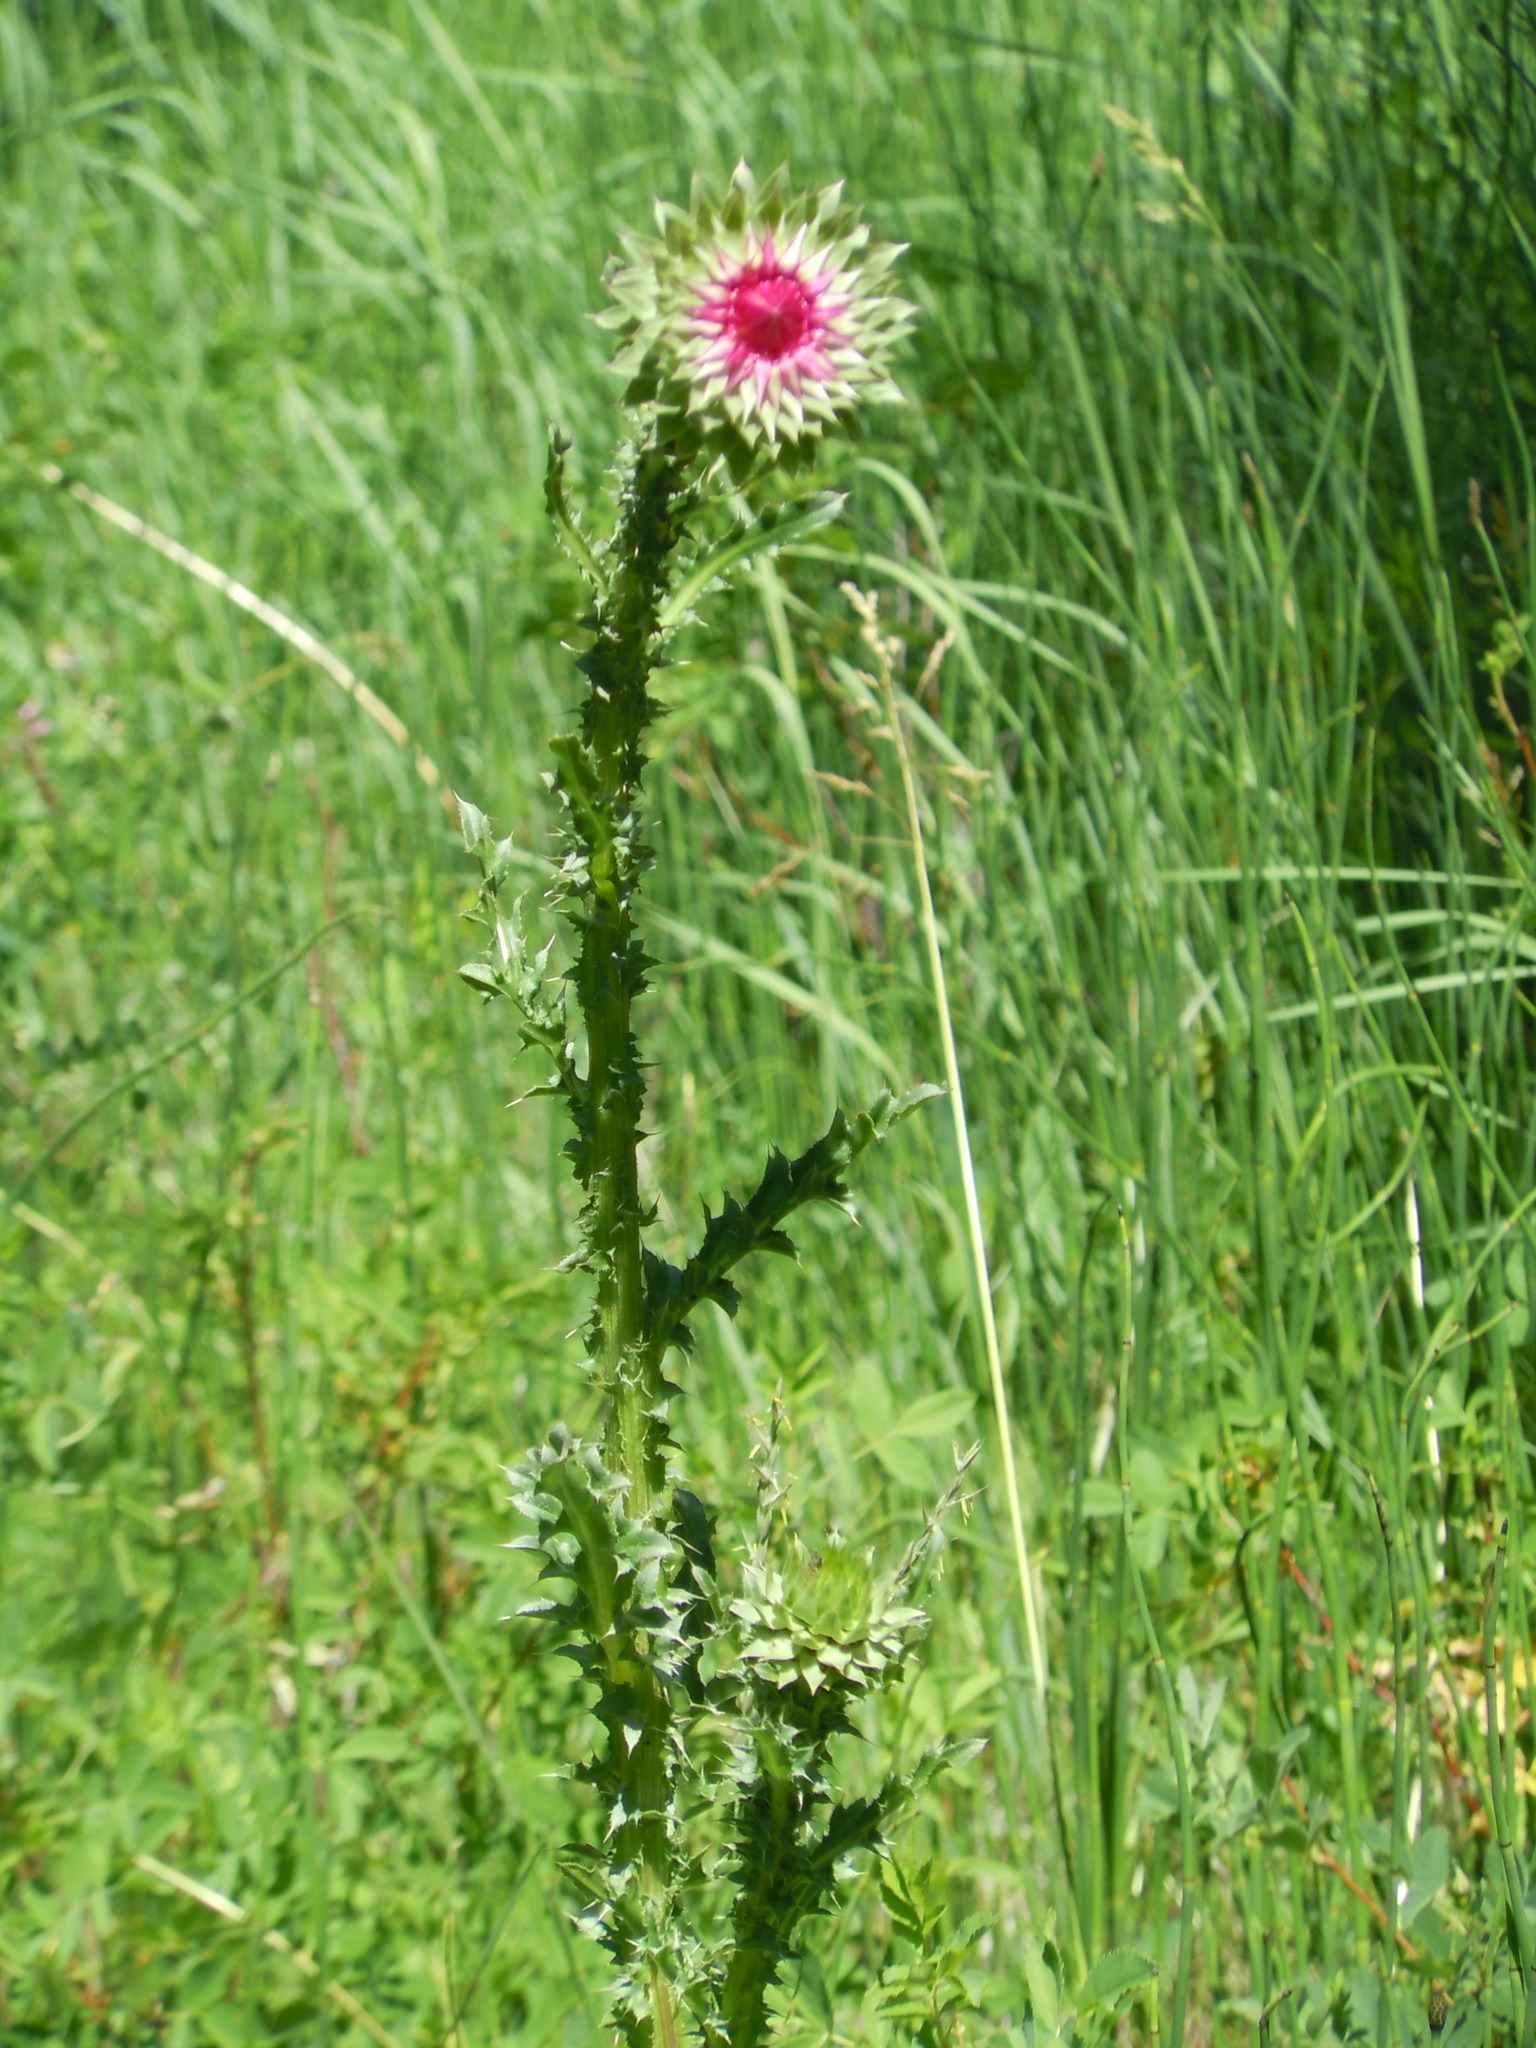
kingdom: Plantae
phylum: Tracheophyta
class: Magnoliopsida
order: Asterales
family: Asteraceae
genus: Carduus
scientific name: Carduus nutans
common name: Musk thistle
